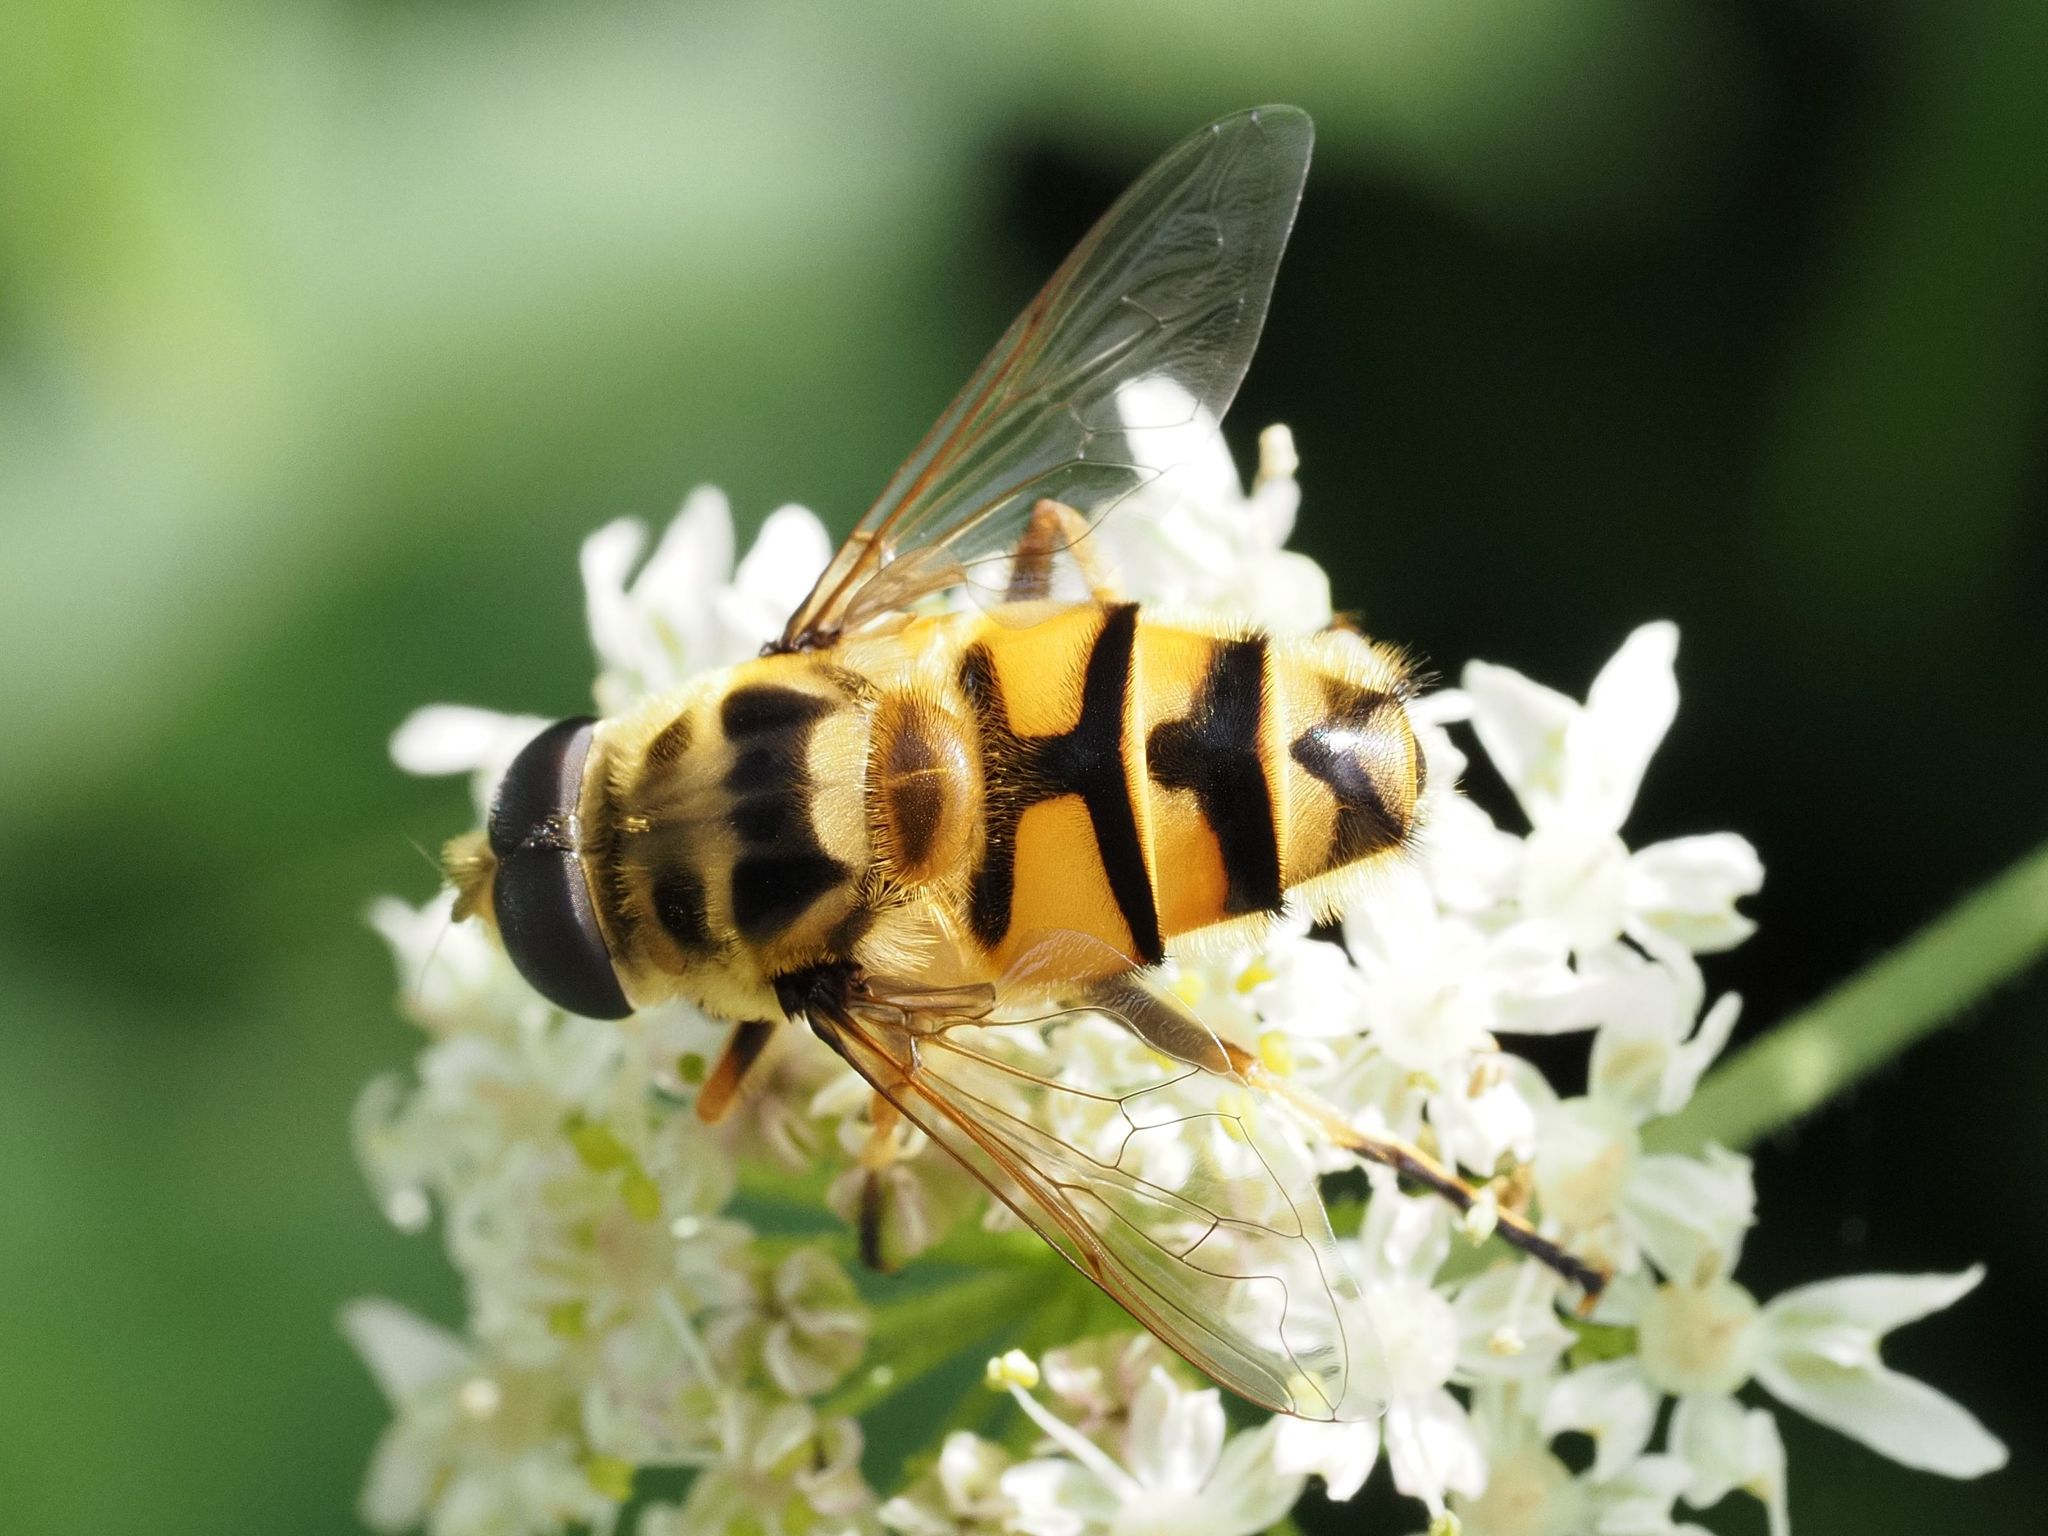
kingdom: Animalia
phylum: Arthropoda
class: Insecta
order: Diptera
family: Syrphidae
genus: Myathropa
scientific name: Myathropa florea
